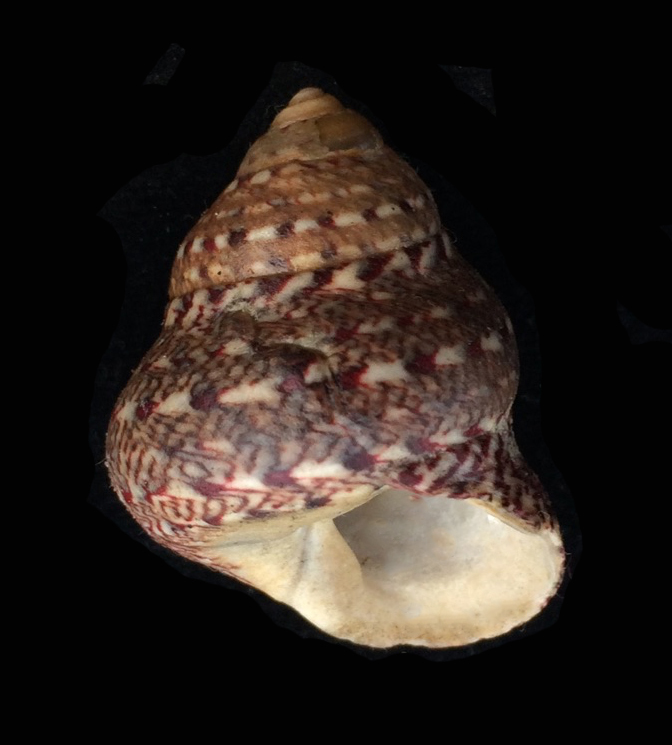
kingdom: Animalia
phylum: Mollusca
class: Gastropoda
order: Trochida
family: Trochidae
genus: Phorcus
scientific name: Phorcus articulatus
